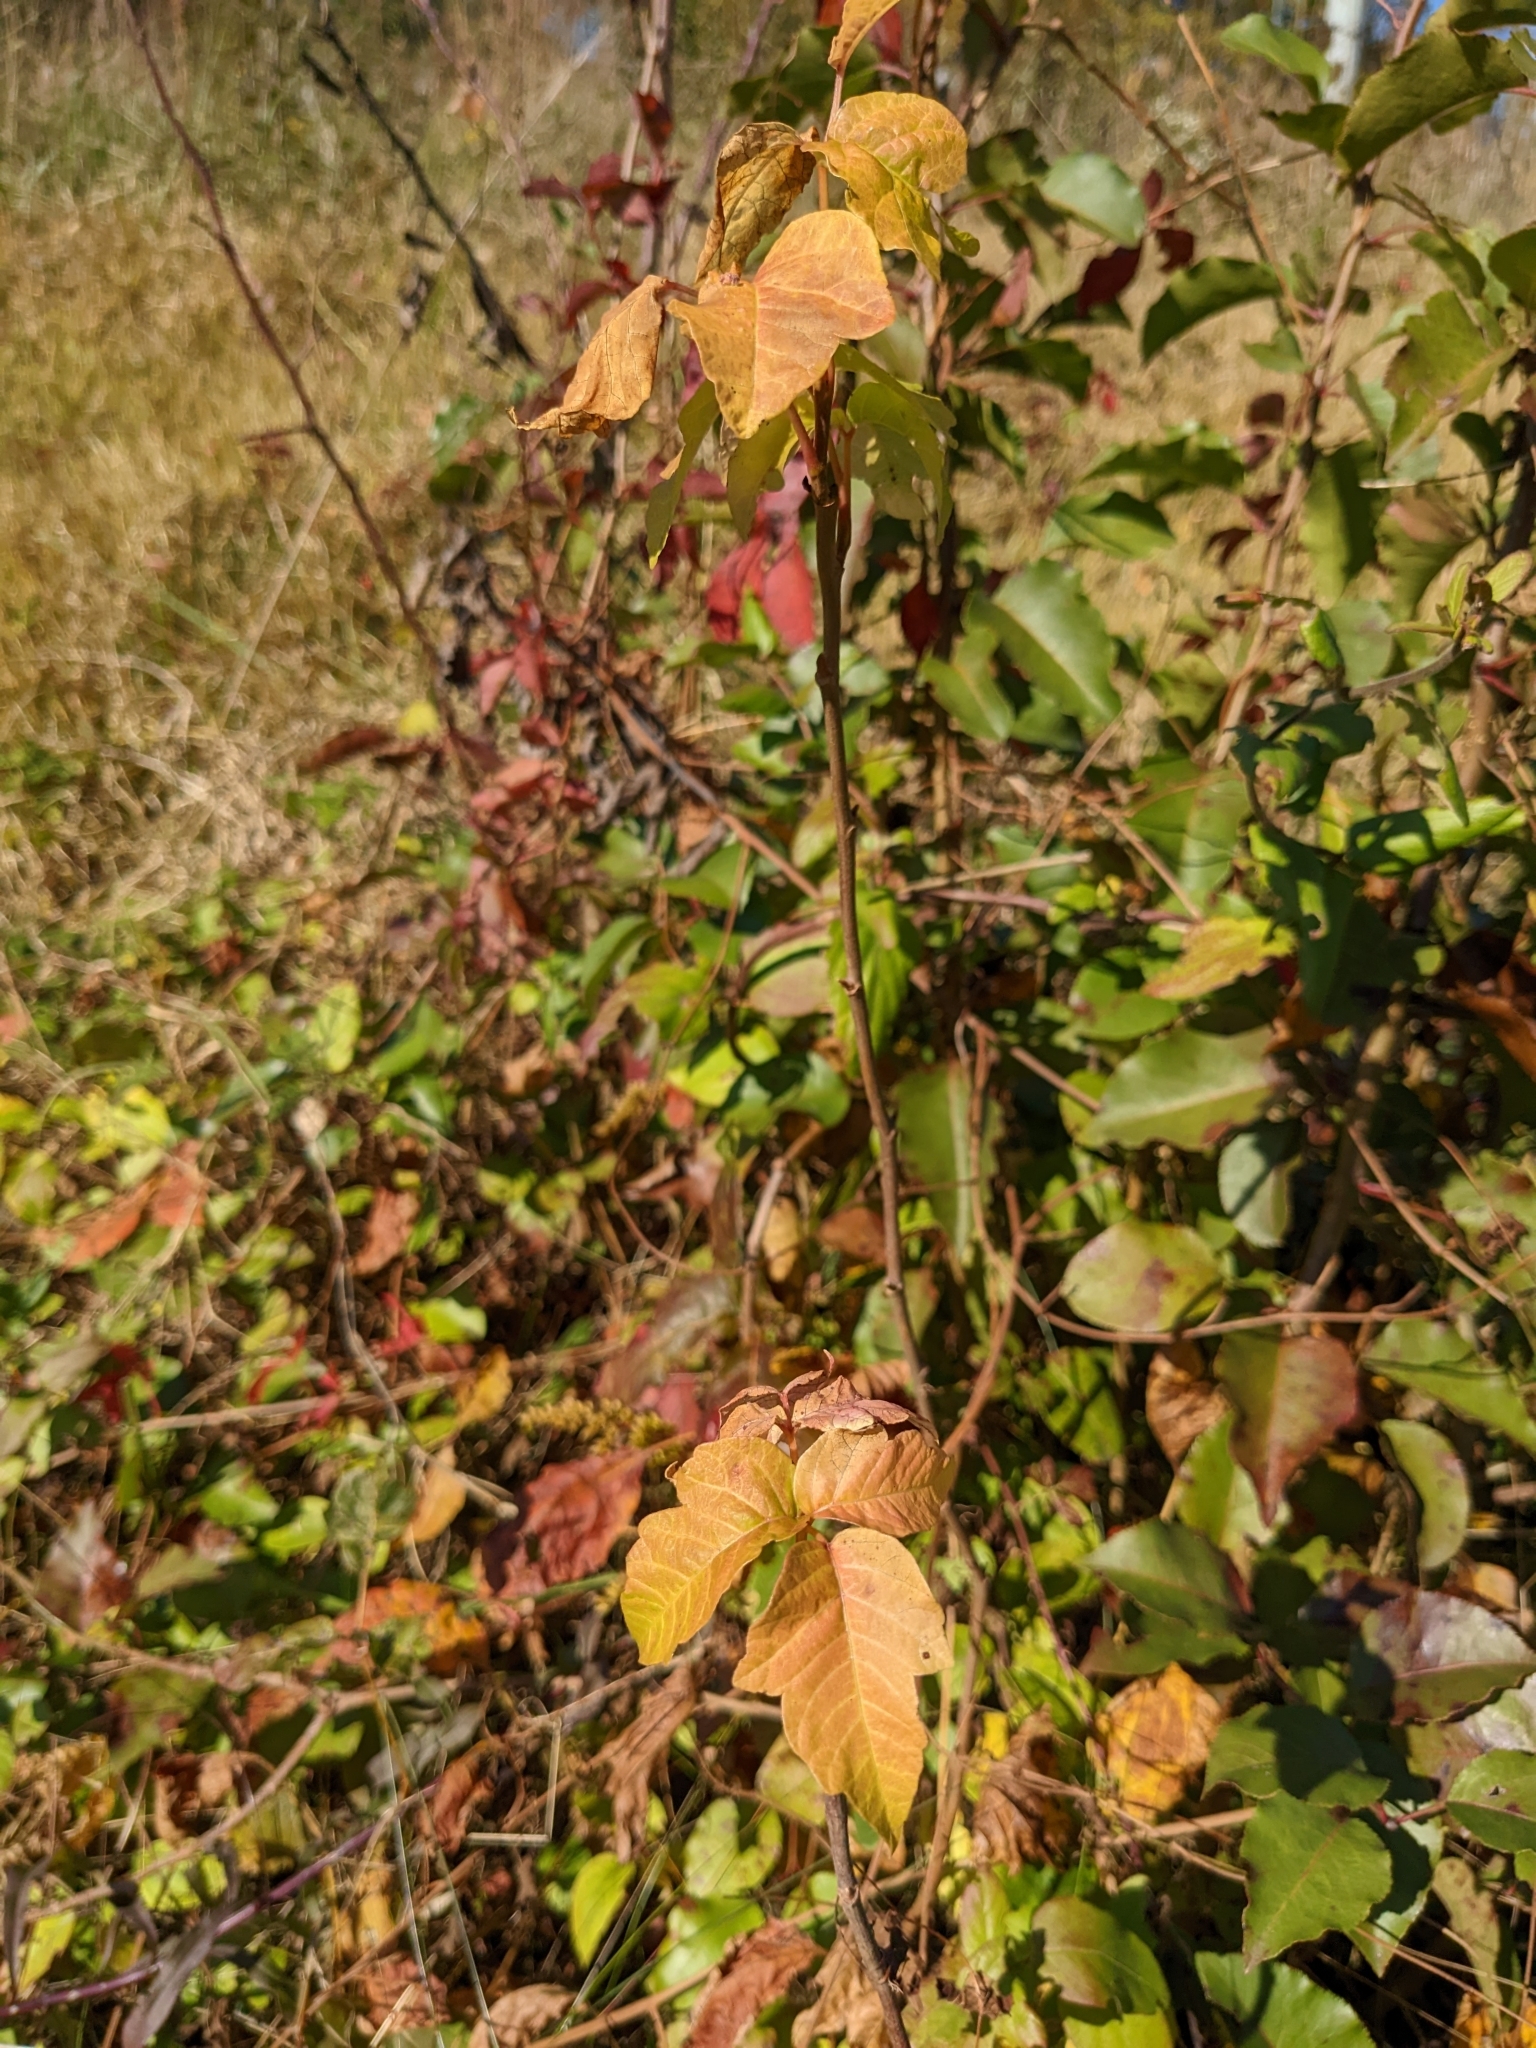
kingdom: Plantae
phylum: Tracheophyta
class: Magnoliopsida
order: Sapindales
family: Anacardiaceae
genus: Toxicodendron
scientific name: Toxicodendron radicans
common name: Poison ivy
